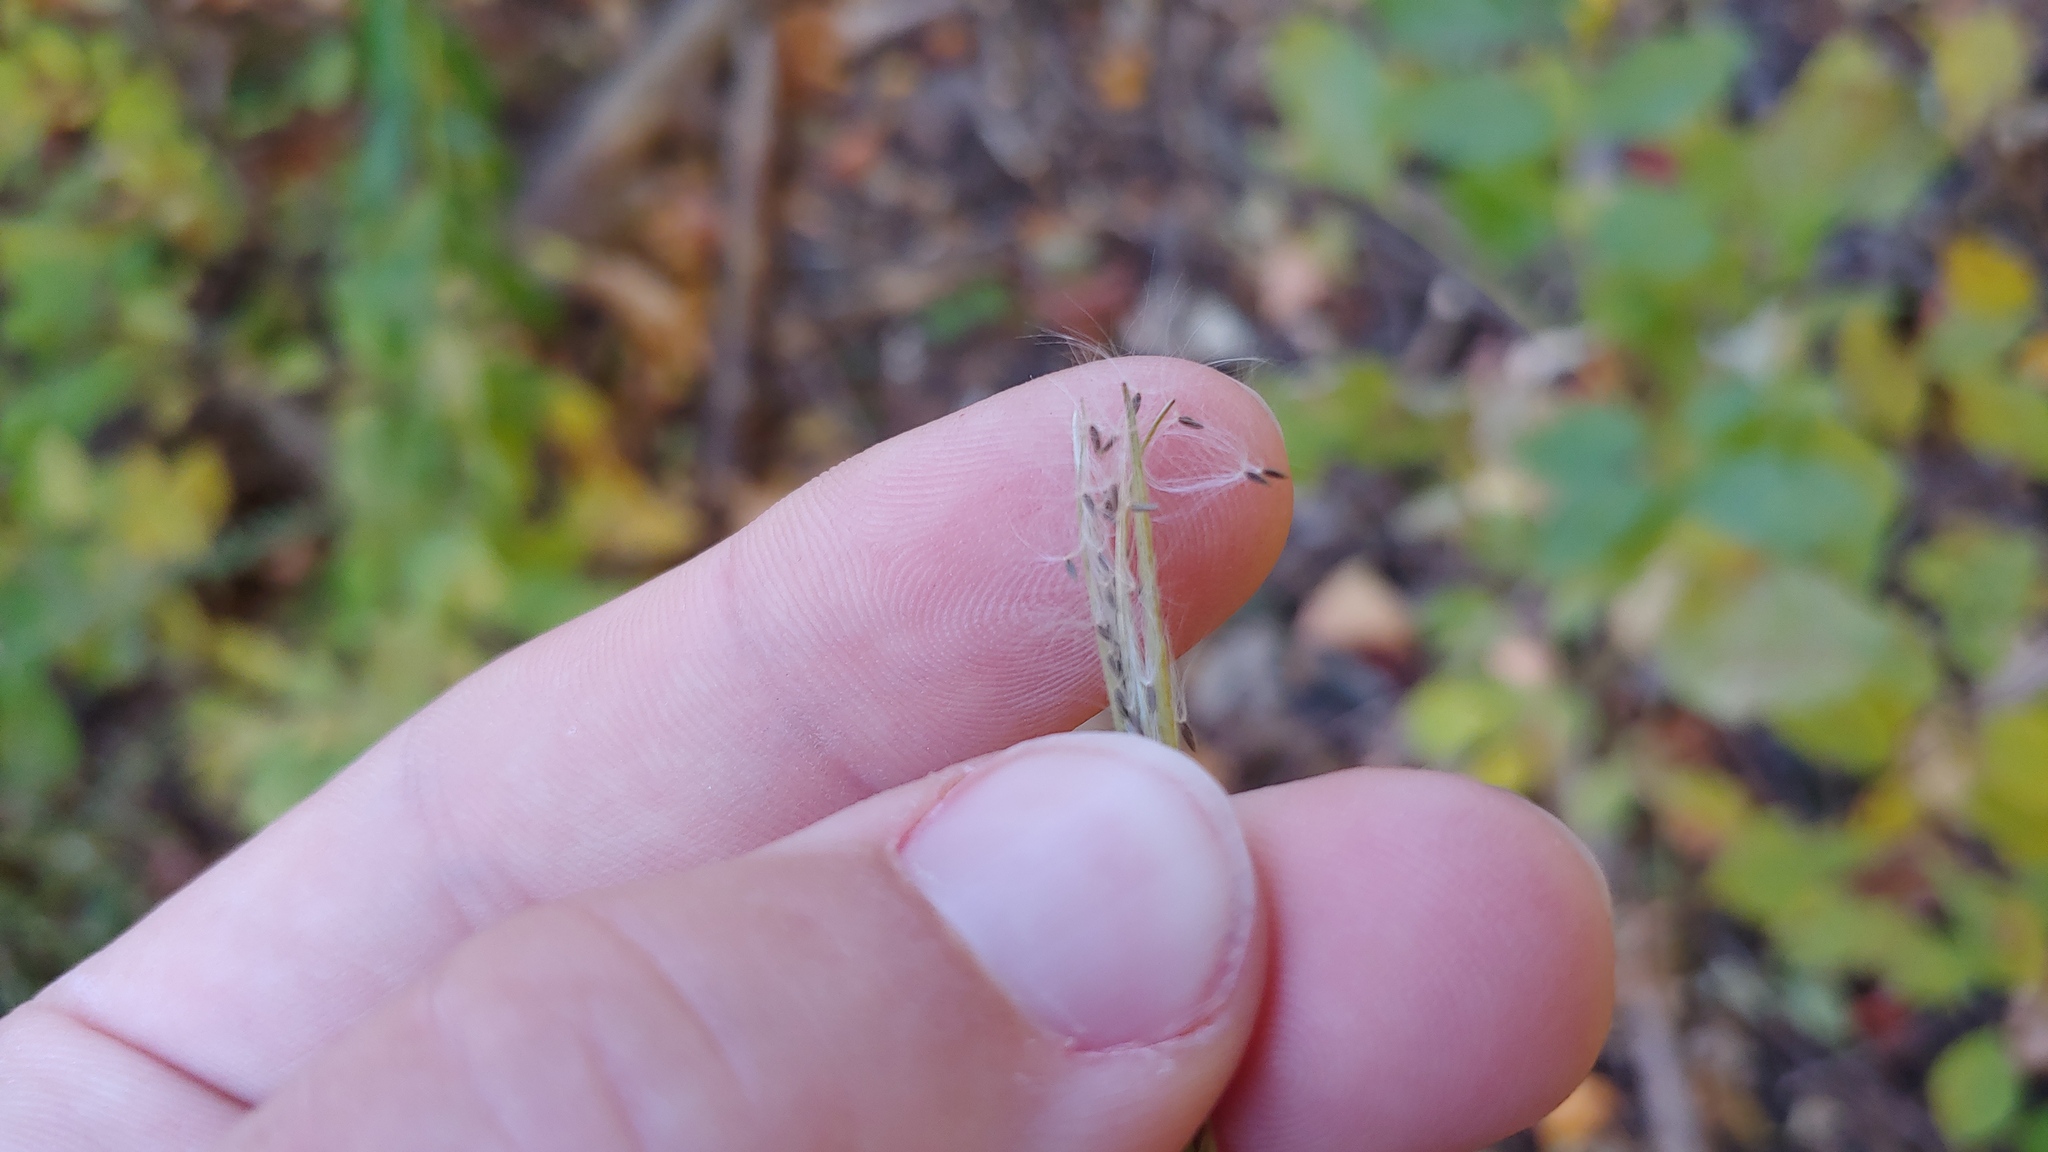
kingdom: Plantae
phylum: Tracheophyta
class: Magnoliopsida
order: Myrtales
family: Onagraceae
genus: Epilobium
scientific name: Epilobium ciliatum
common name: American willowherb
